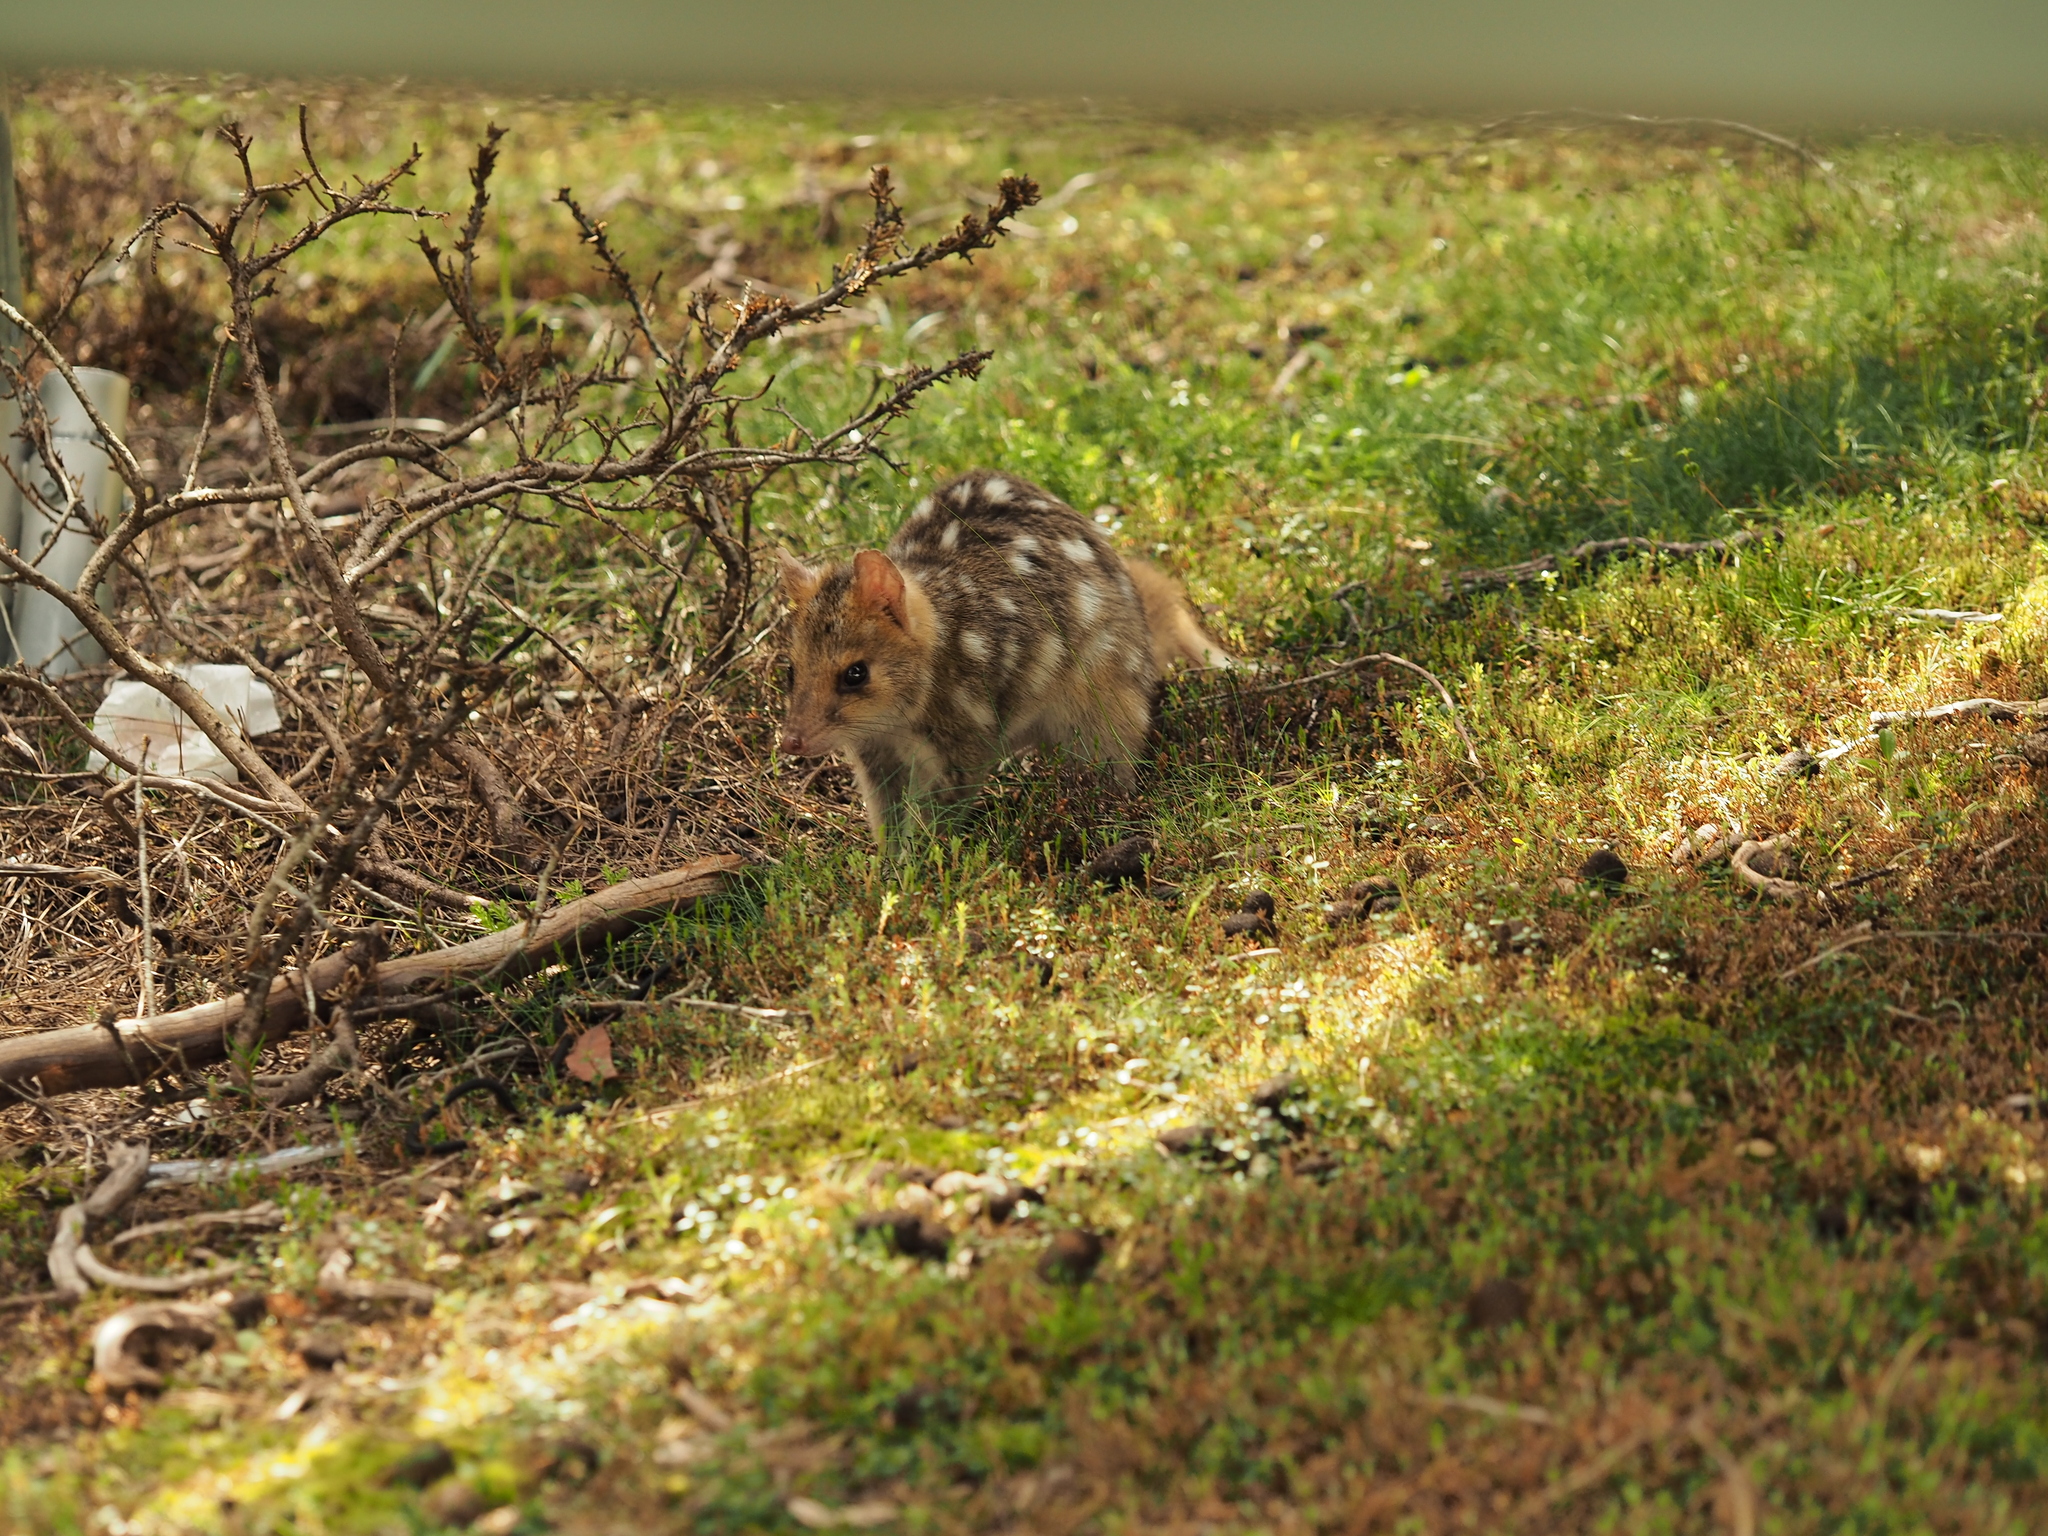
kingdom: Animalia
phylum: Chordata
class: Mammalia
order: Dasyuromorphia
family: Dasyuridae
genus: Dasyurus
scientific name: Dasyurus viverrinus
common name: Eastern quoll
